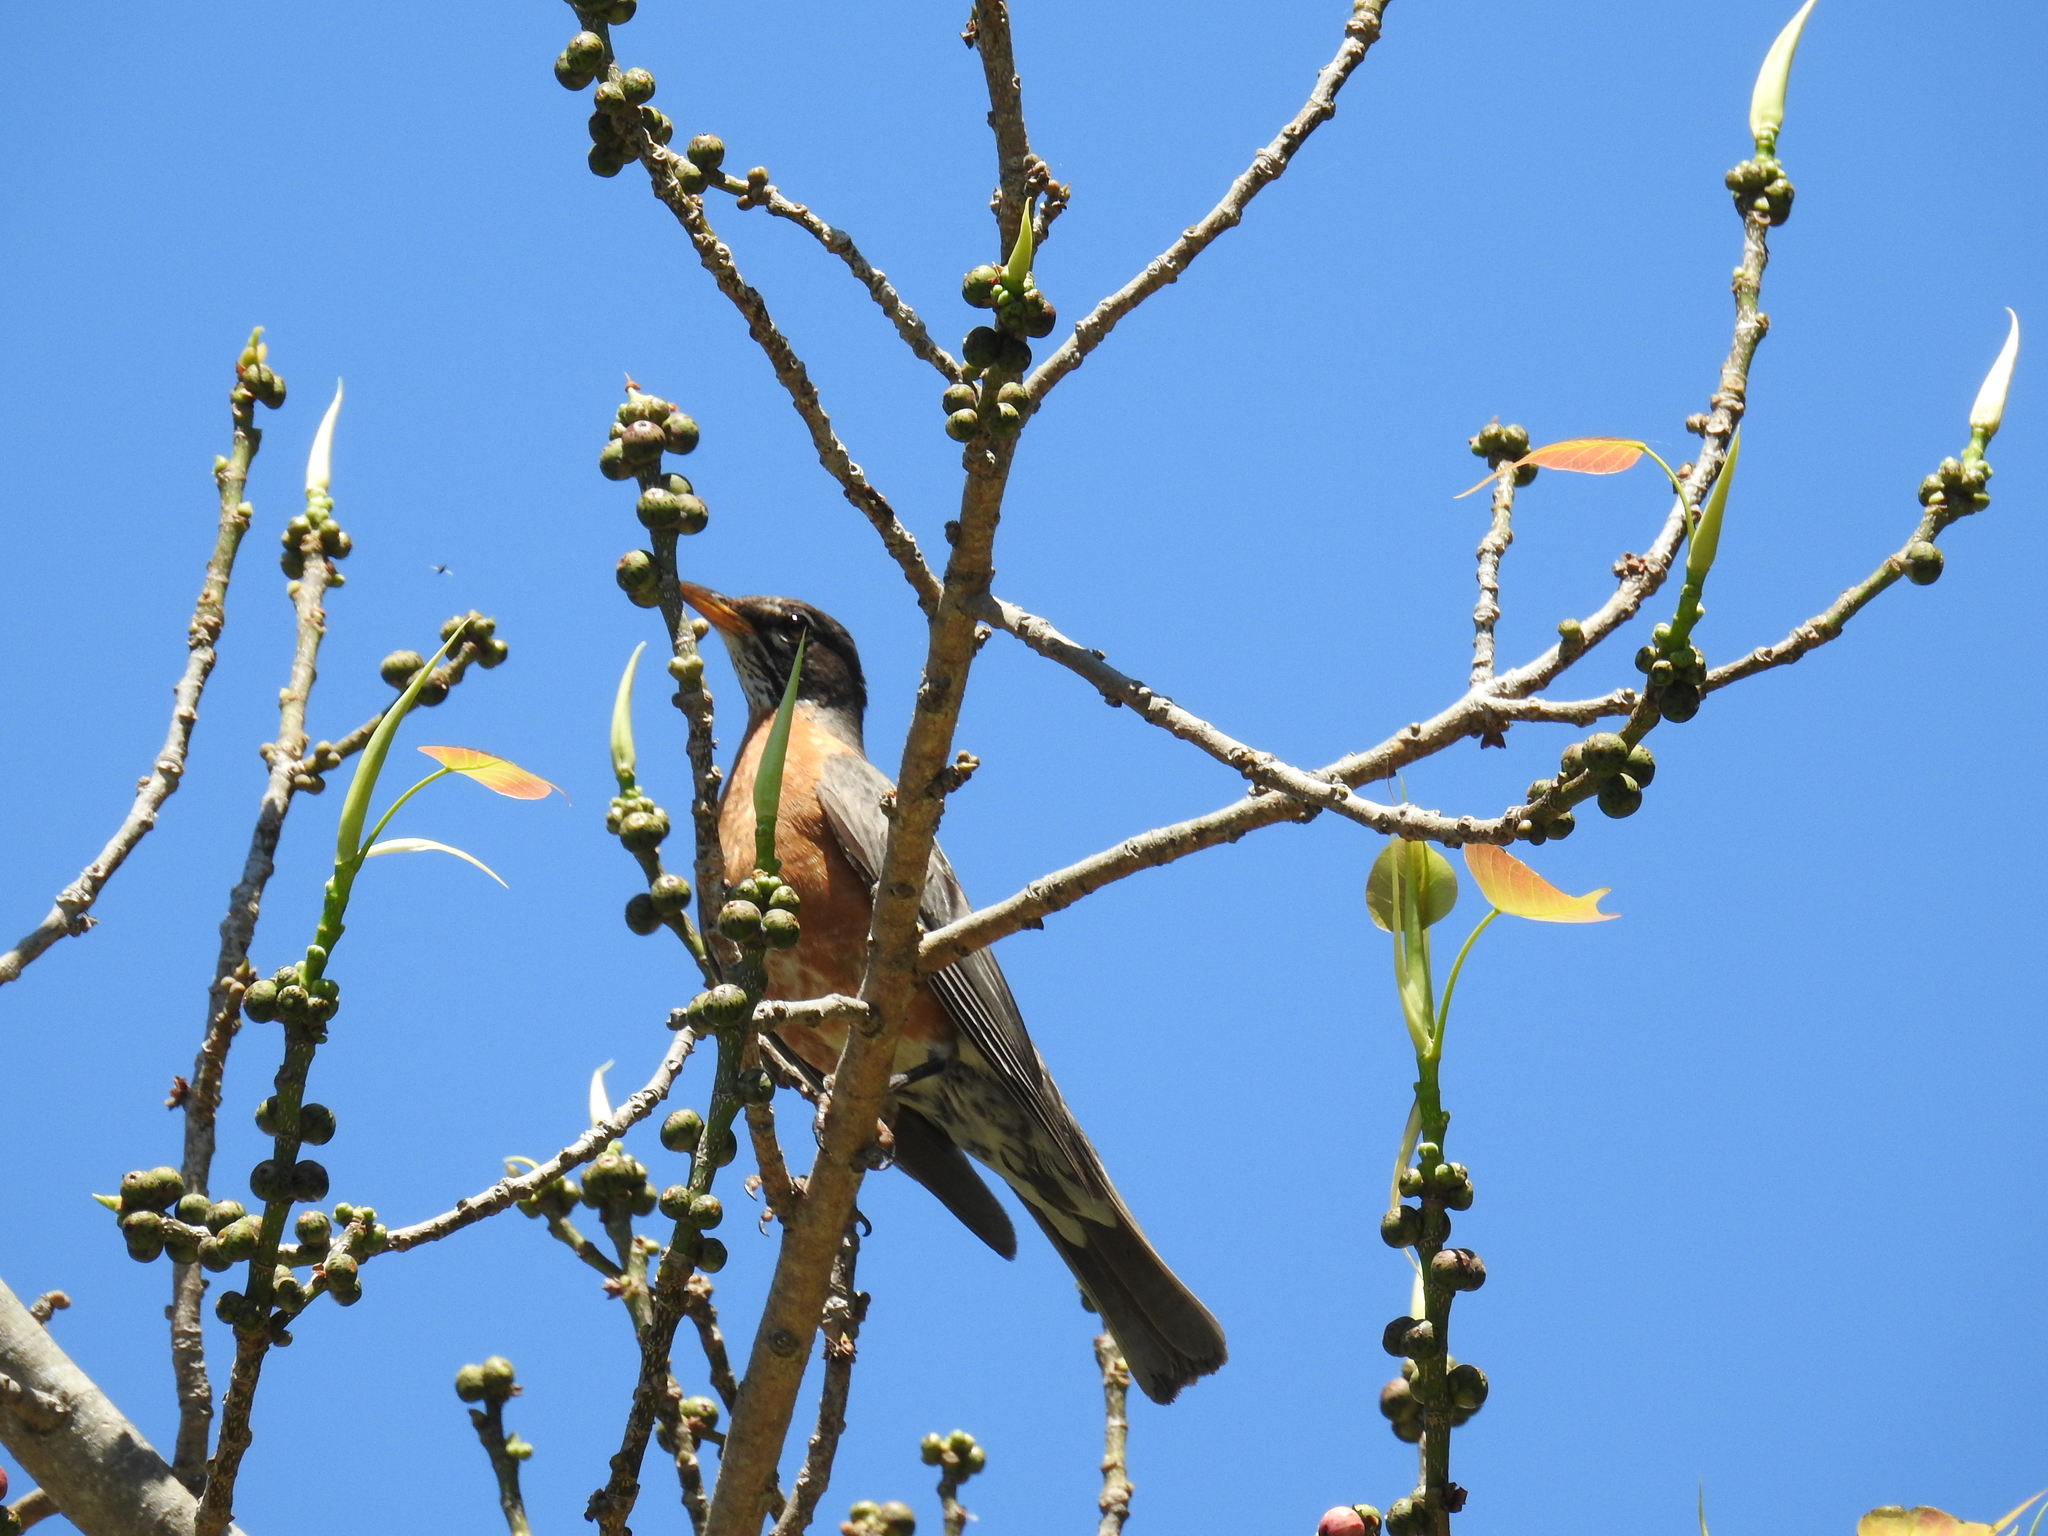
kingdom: Animalia
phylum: Chordata
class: Aves
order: Passeriformes
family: Turdidae
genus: Turdus
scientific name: Turdus migratorius
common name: American robin
